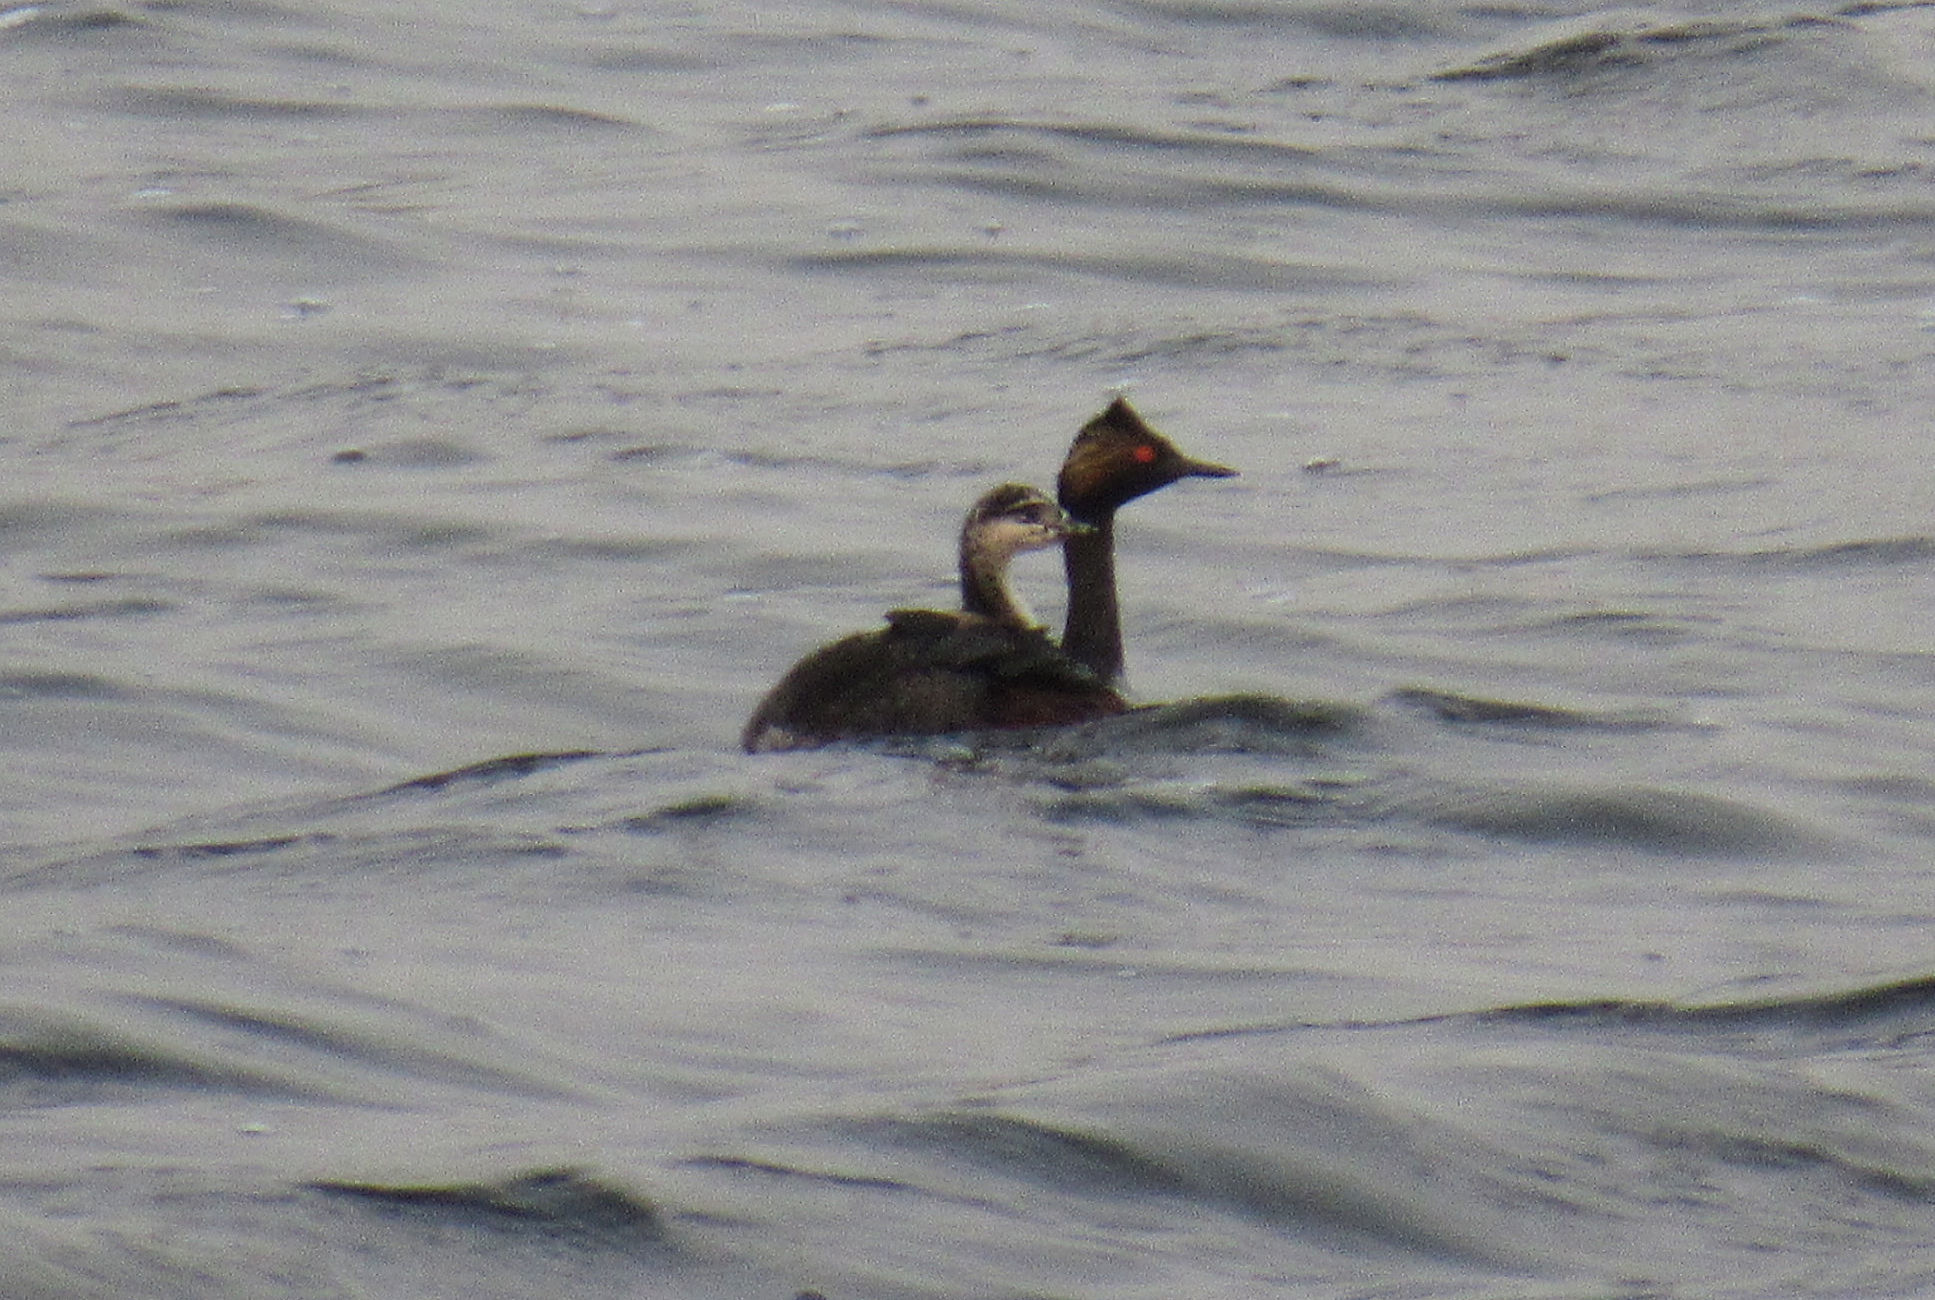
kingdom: Animalia
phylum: Chordata
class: Aves
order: Podicipediformes
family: Podicipedidae
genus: Podiceps
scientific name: Podiceps nigricollis
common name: Black-necked grebe
